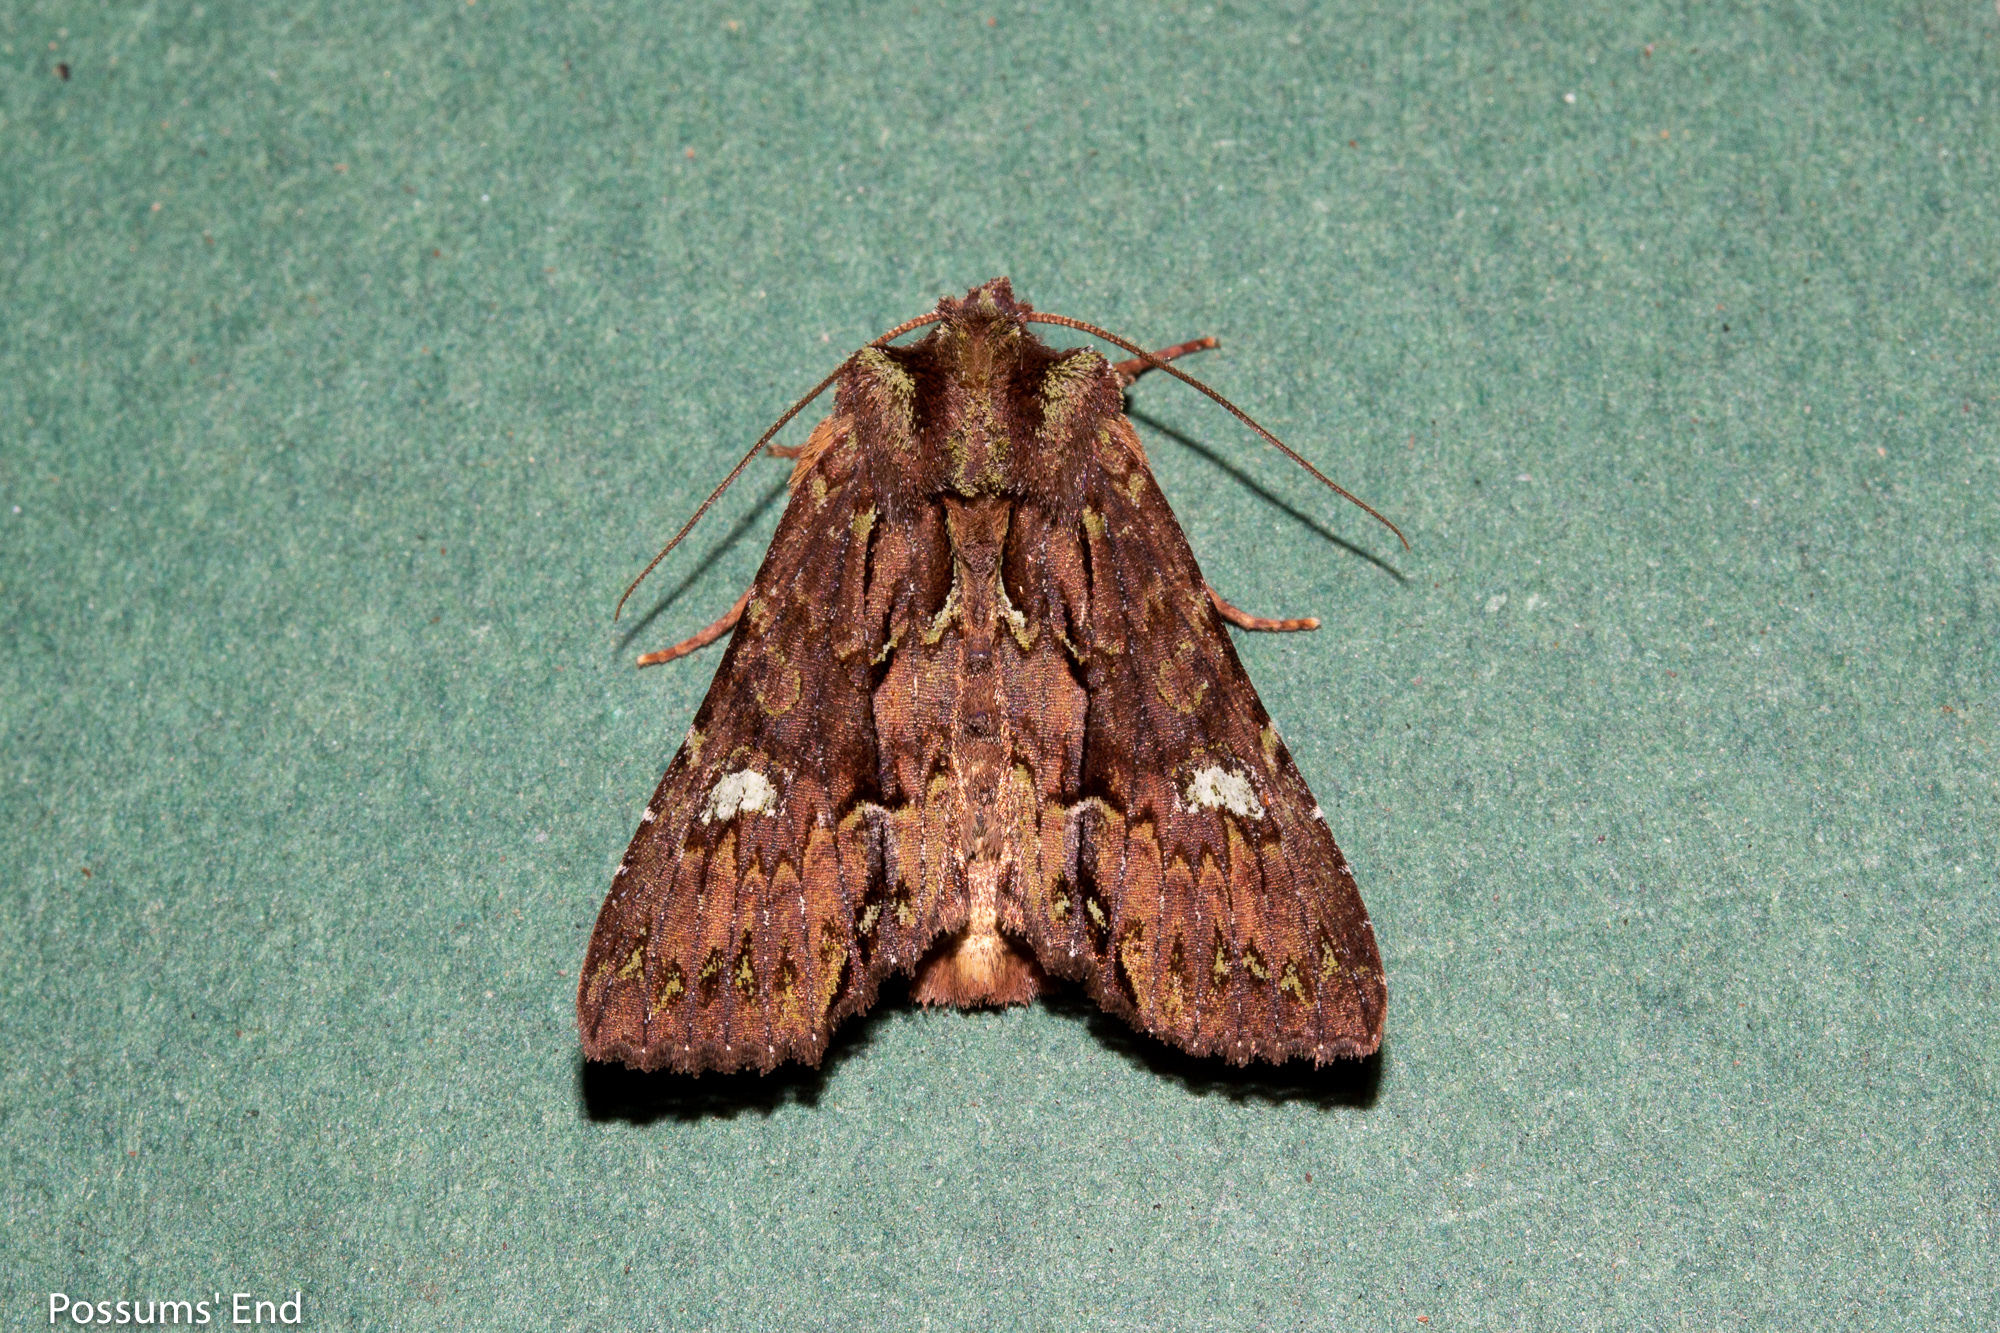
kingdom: Animalia
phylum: Arthropoda
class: Insecta
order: Lepidoptera
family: Noctuidae
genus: Meterana
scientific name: Meterana diatmeta
